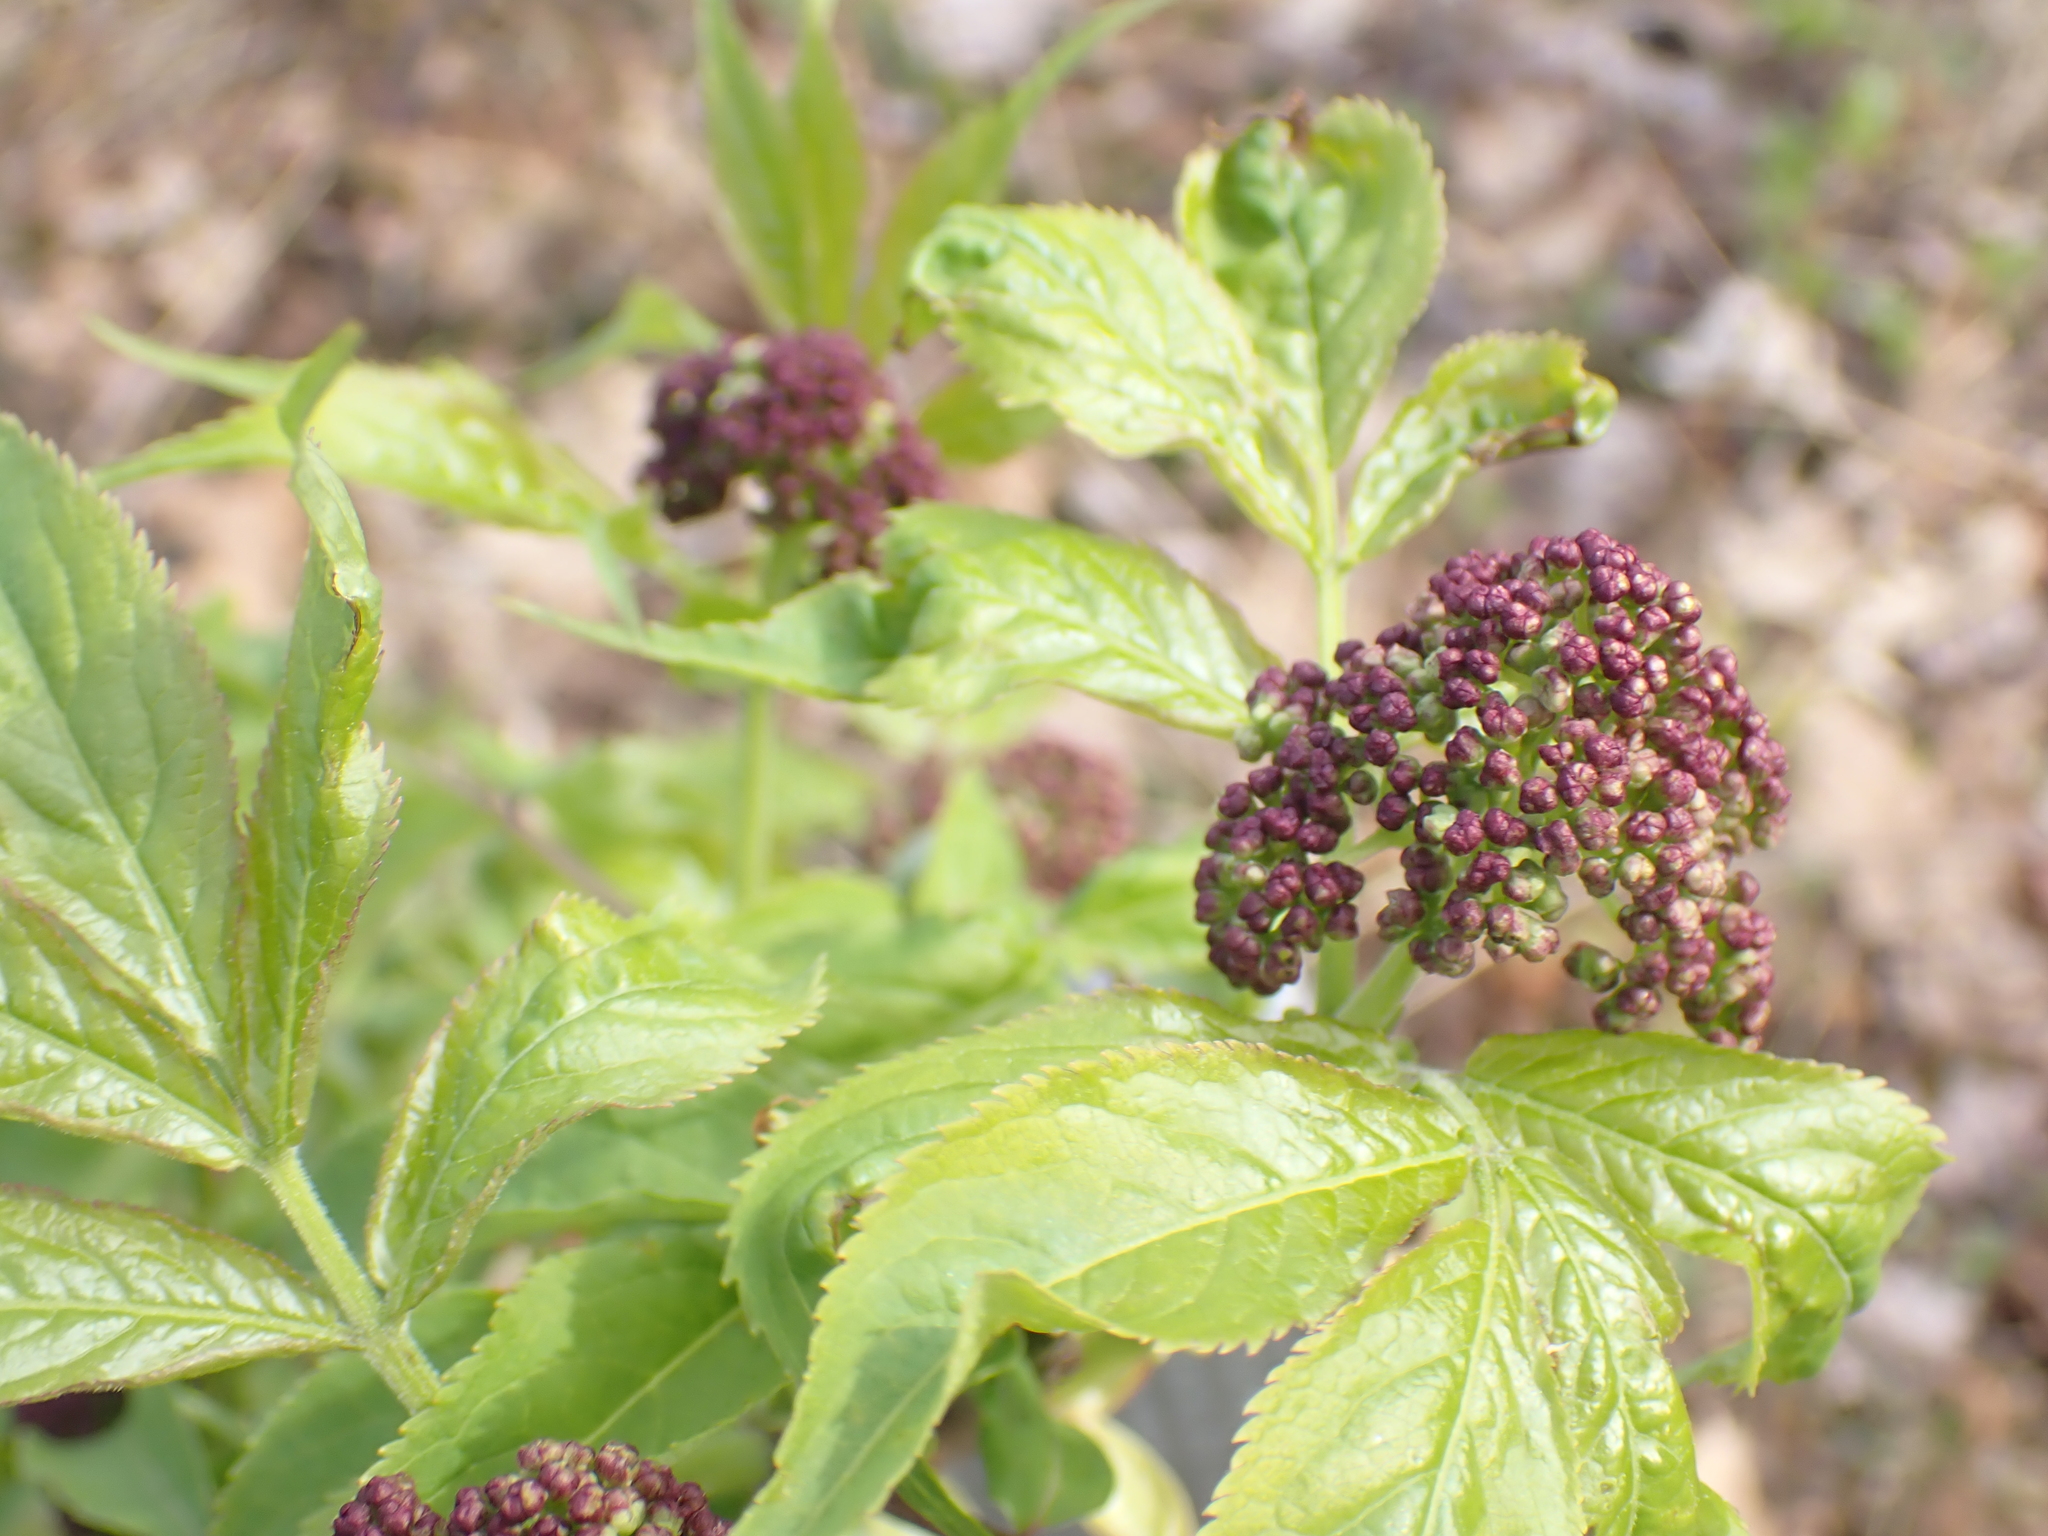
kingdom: Plantae
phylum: Tracheophyta
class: Magnoliopsida
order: Dipsacales
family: Viburnaceae
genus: Sambucus
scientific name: Sambucus racemosa
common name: Red-berried elder
